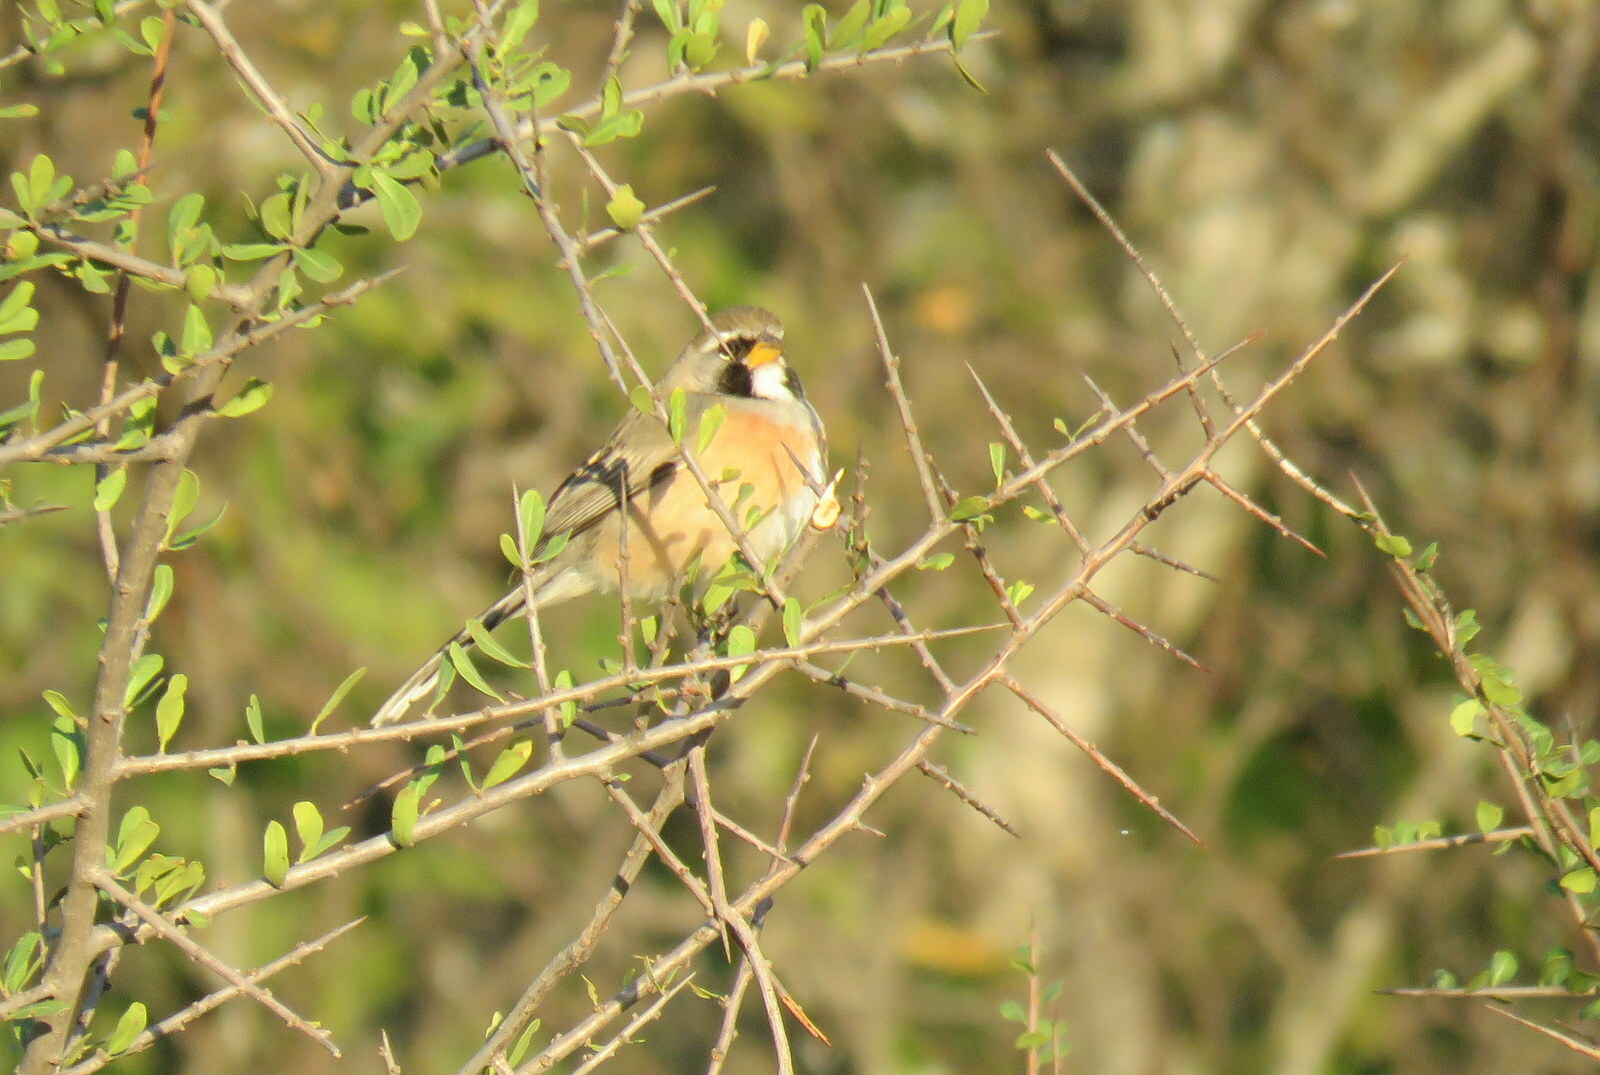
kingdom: Animalia
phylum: Chordata
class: Aves
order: Passeriformes
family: Thraupidae
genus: Saltatricula
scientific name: Saltatricula multicolor
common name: Many-colored chaco finch
